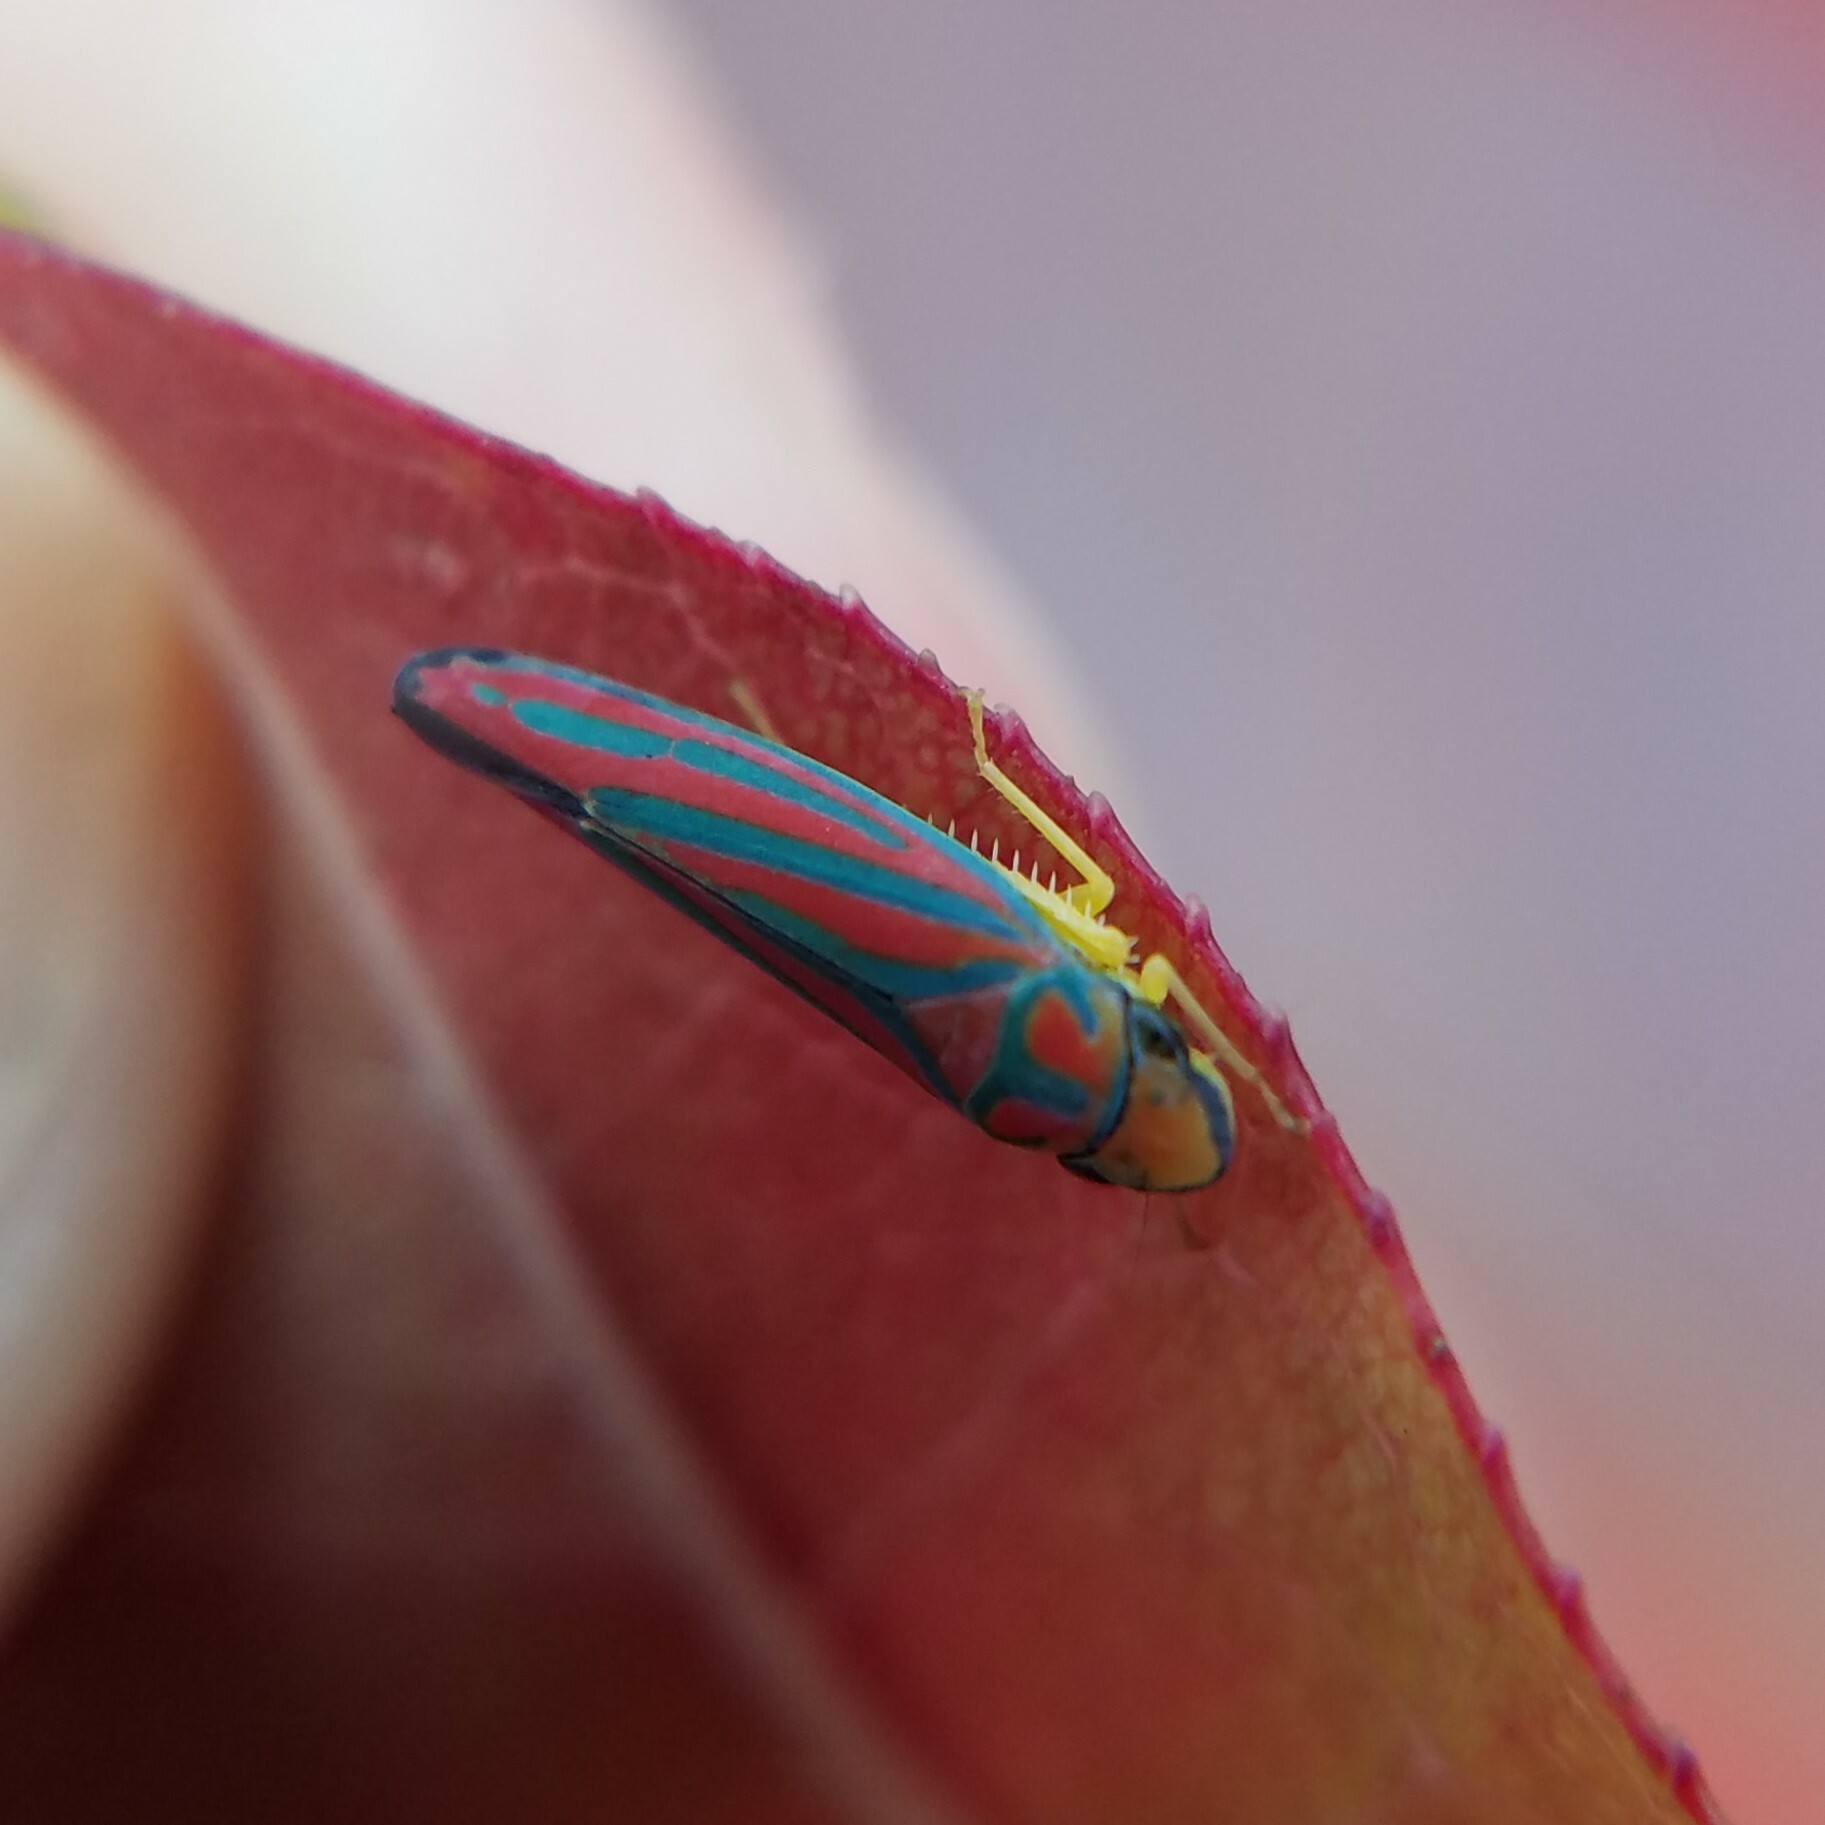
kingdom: Animalia
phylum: Arthropoda
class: Insecta
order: Hemiptera
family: Cicadellidae
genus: Graphocephala
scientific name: Graphocephala coccinea
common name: Candy-striped leafhopper
